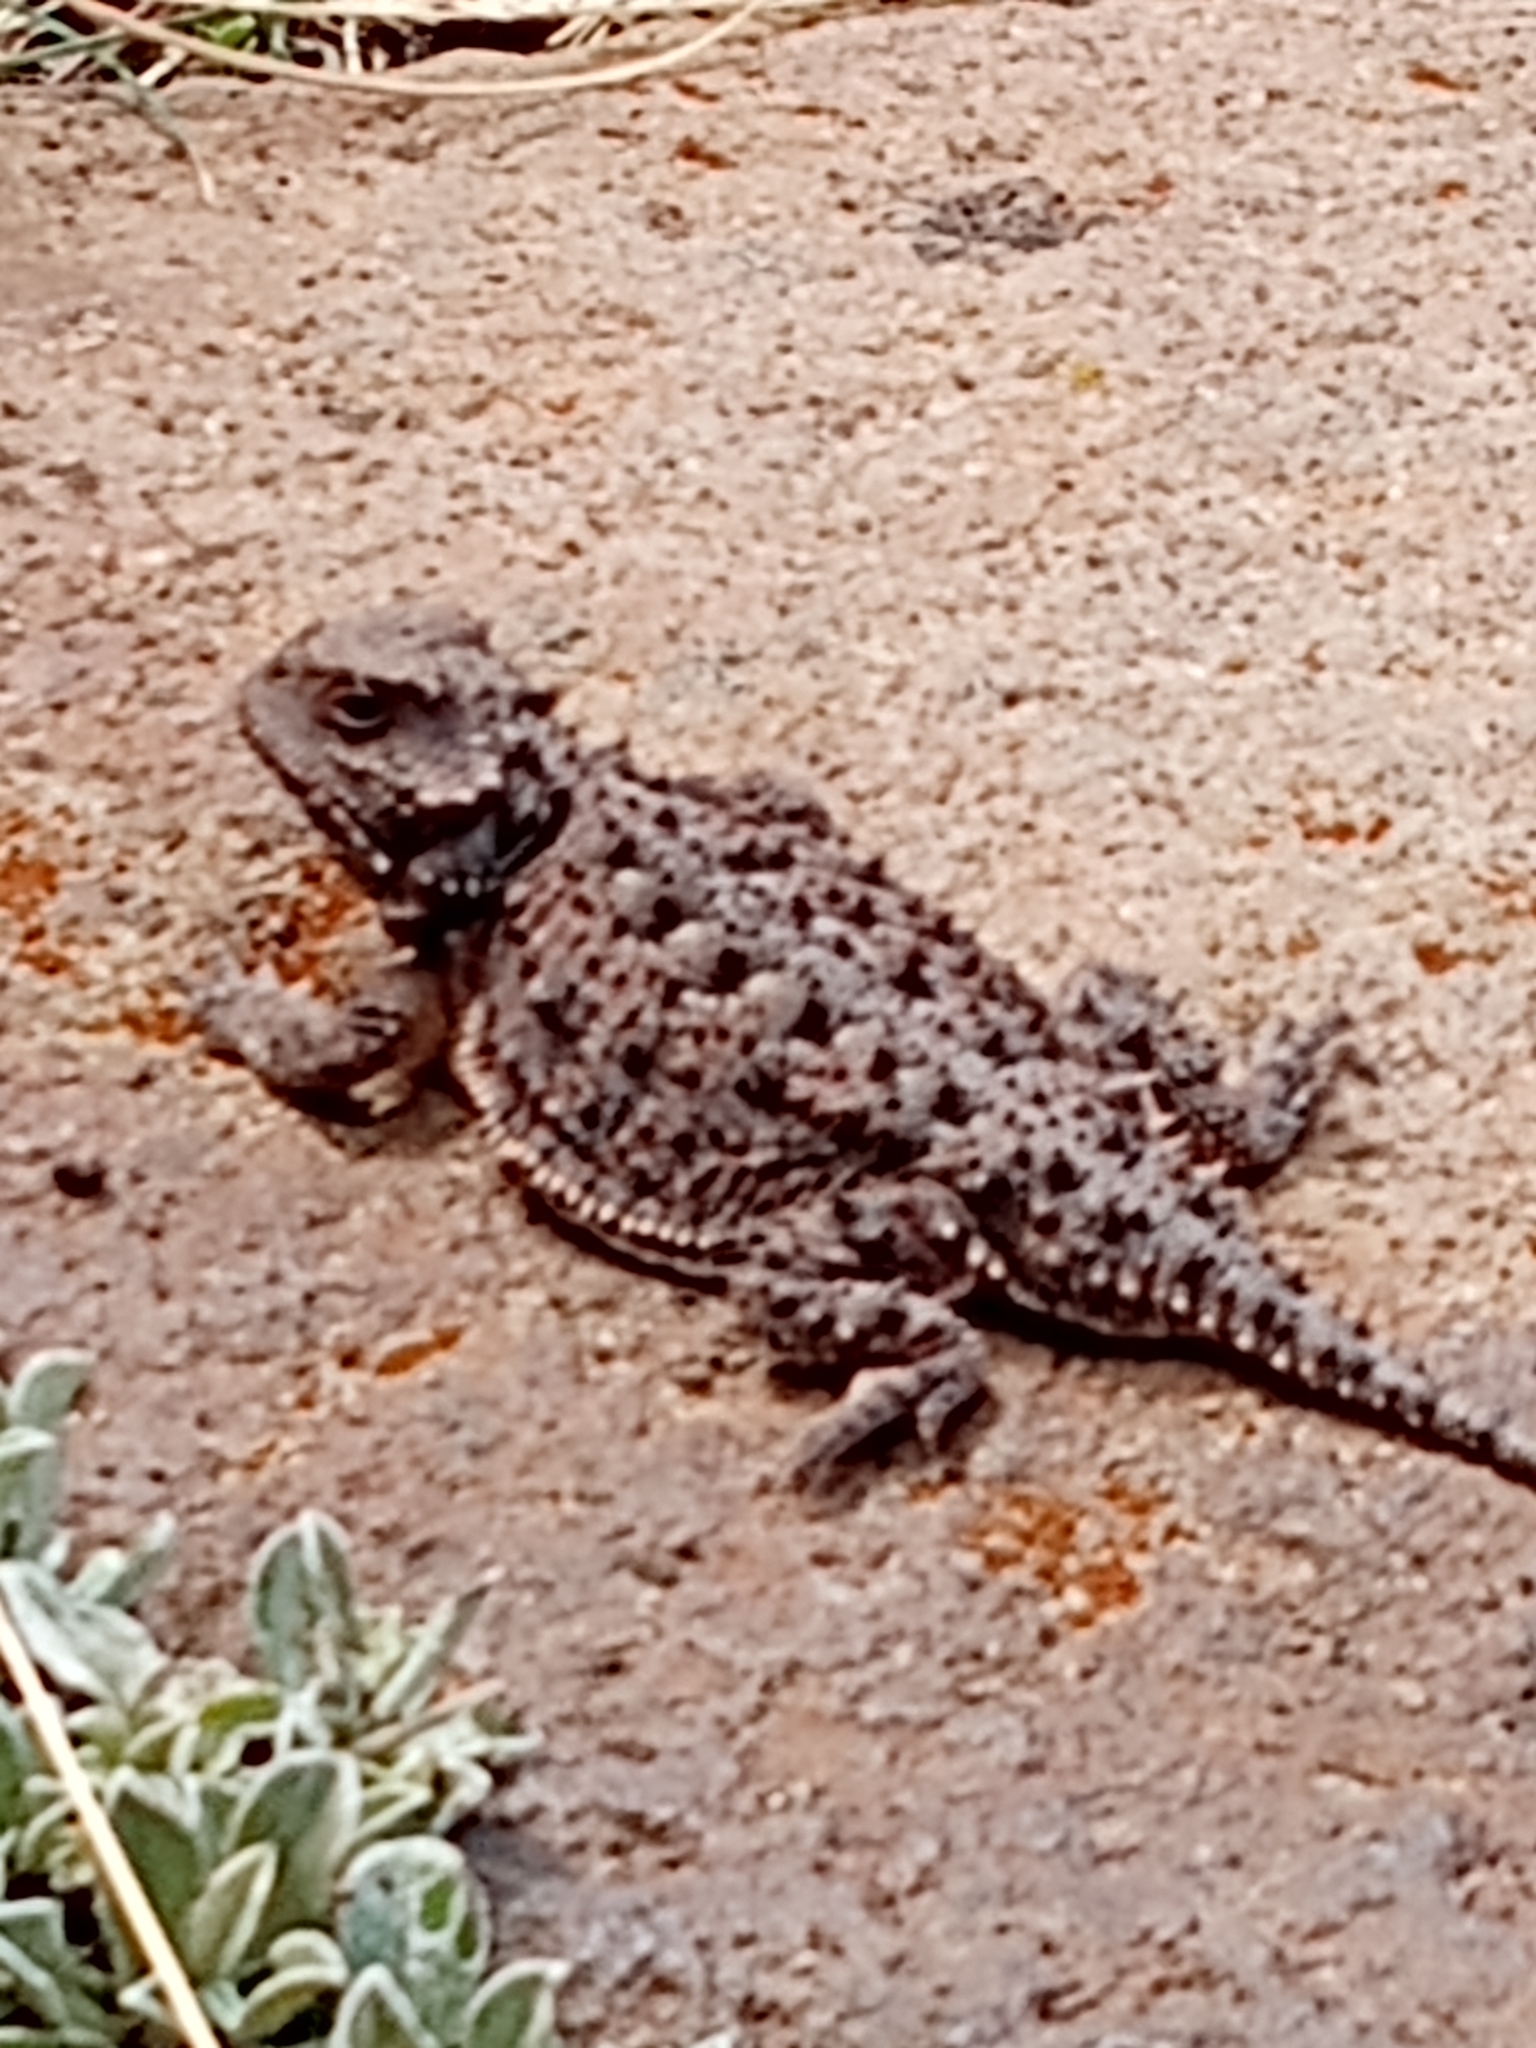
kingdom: Animalia
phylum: Chordata
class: Squamata
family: Phrynosomatidae
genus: Phrynosoma
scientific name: Phrynosoma hernandesi
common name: Greater short-horned lizard
